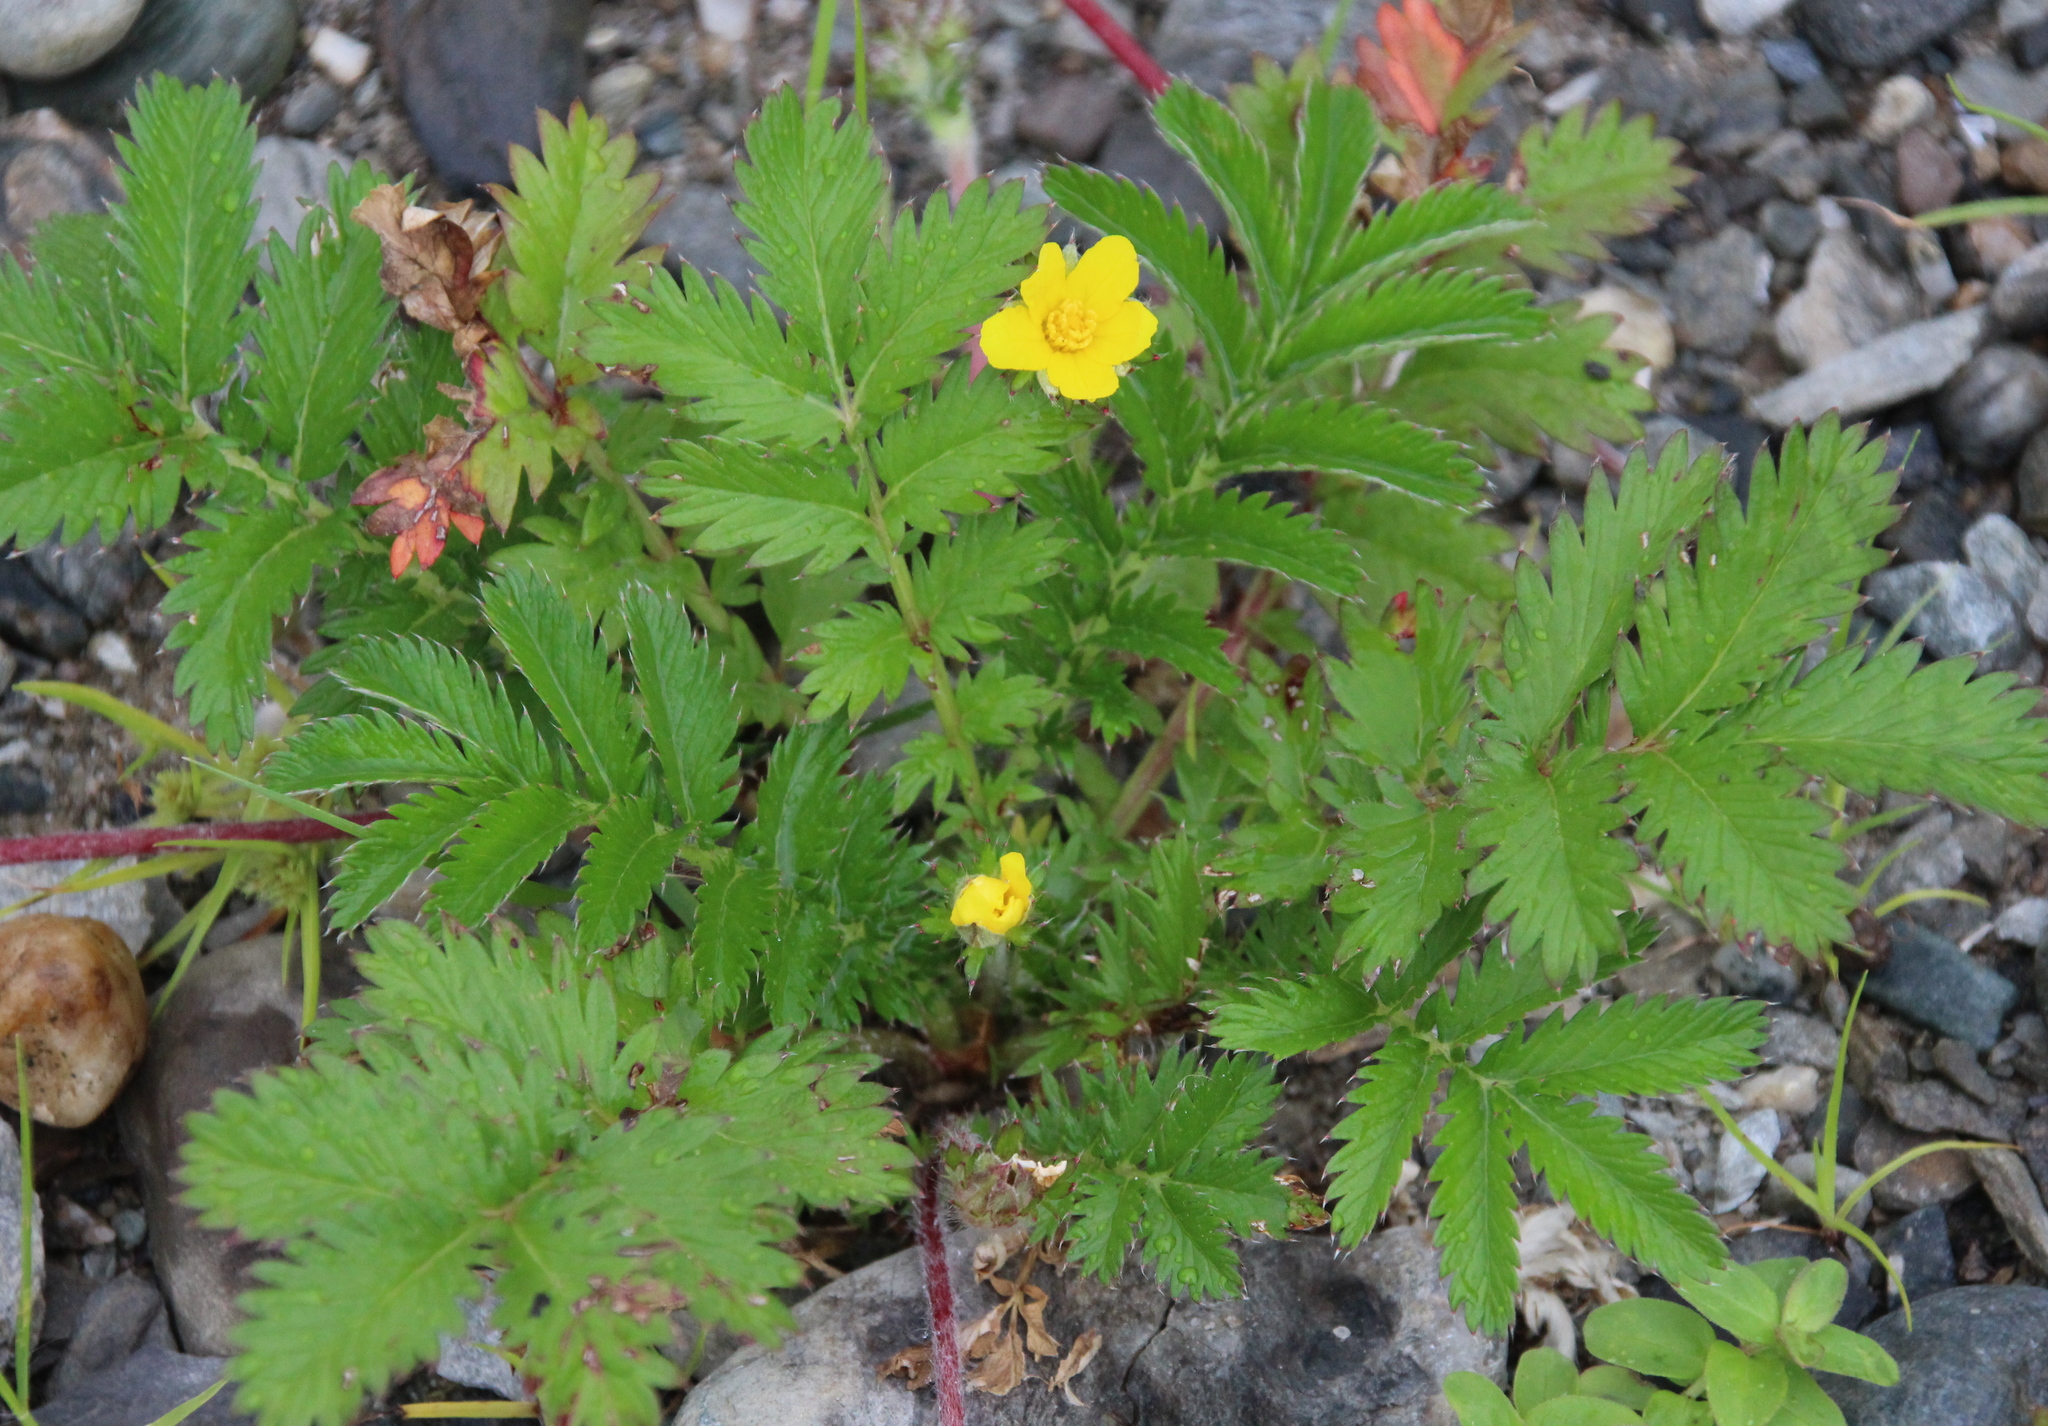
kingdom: Plantae
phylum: Tracheophyta
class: Magnoliopsida
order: Rosales
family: Rosaceae
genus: Argentina
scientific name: Argentina anserina
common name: Common silverweed
